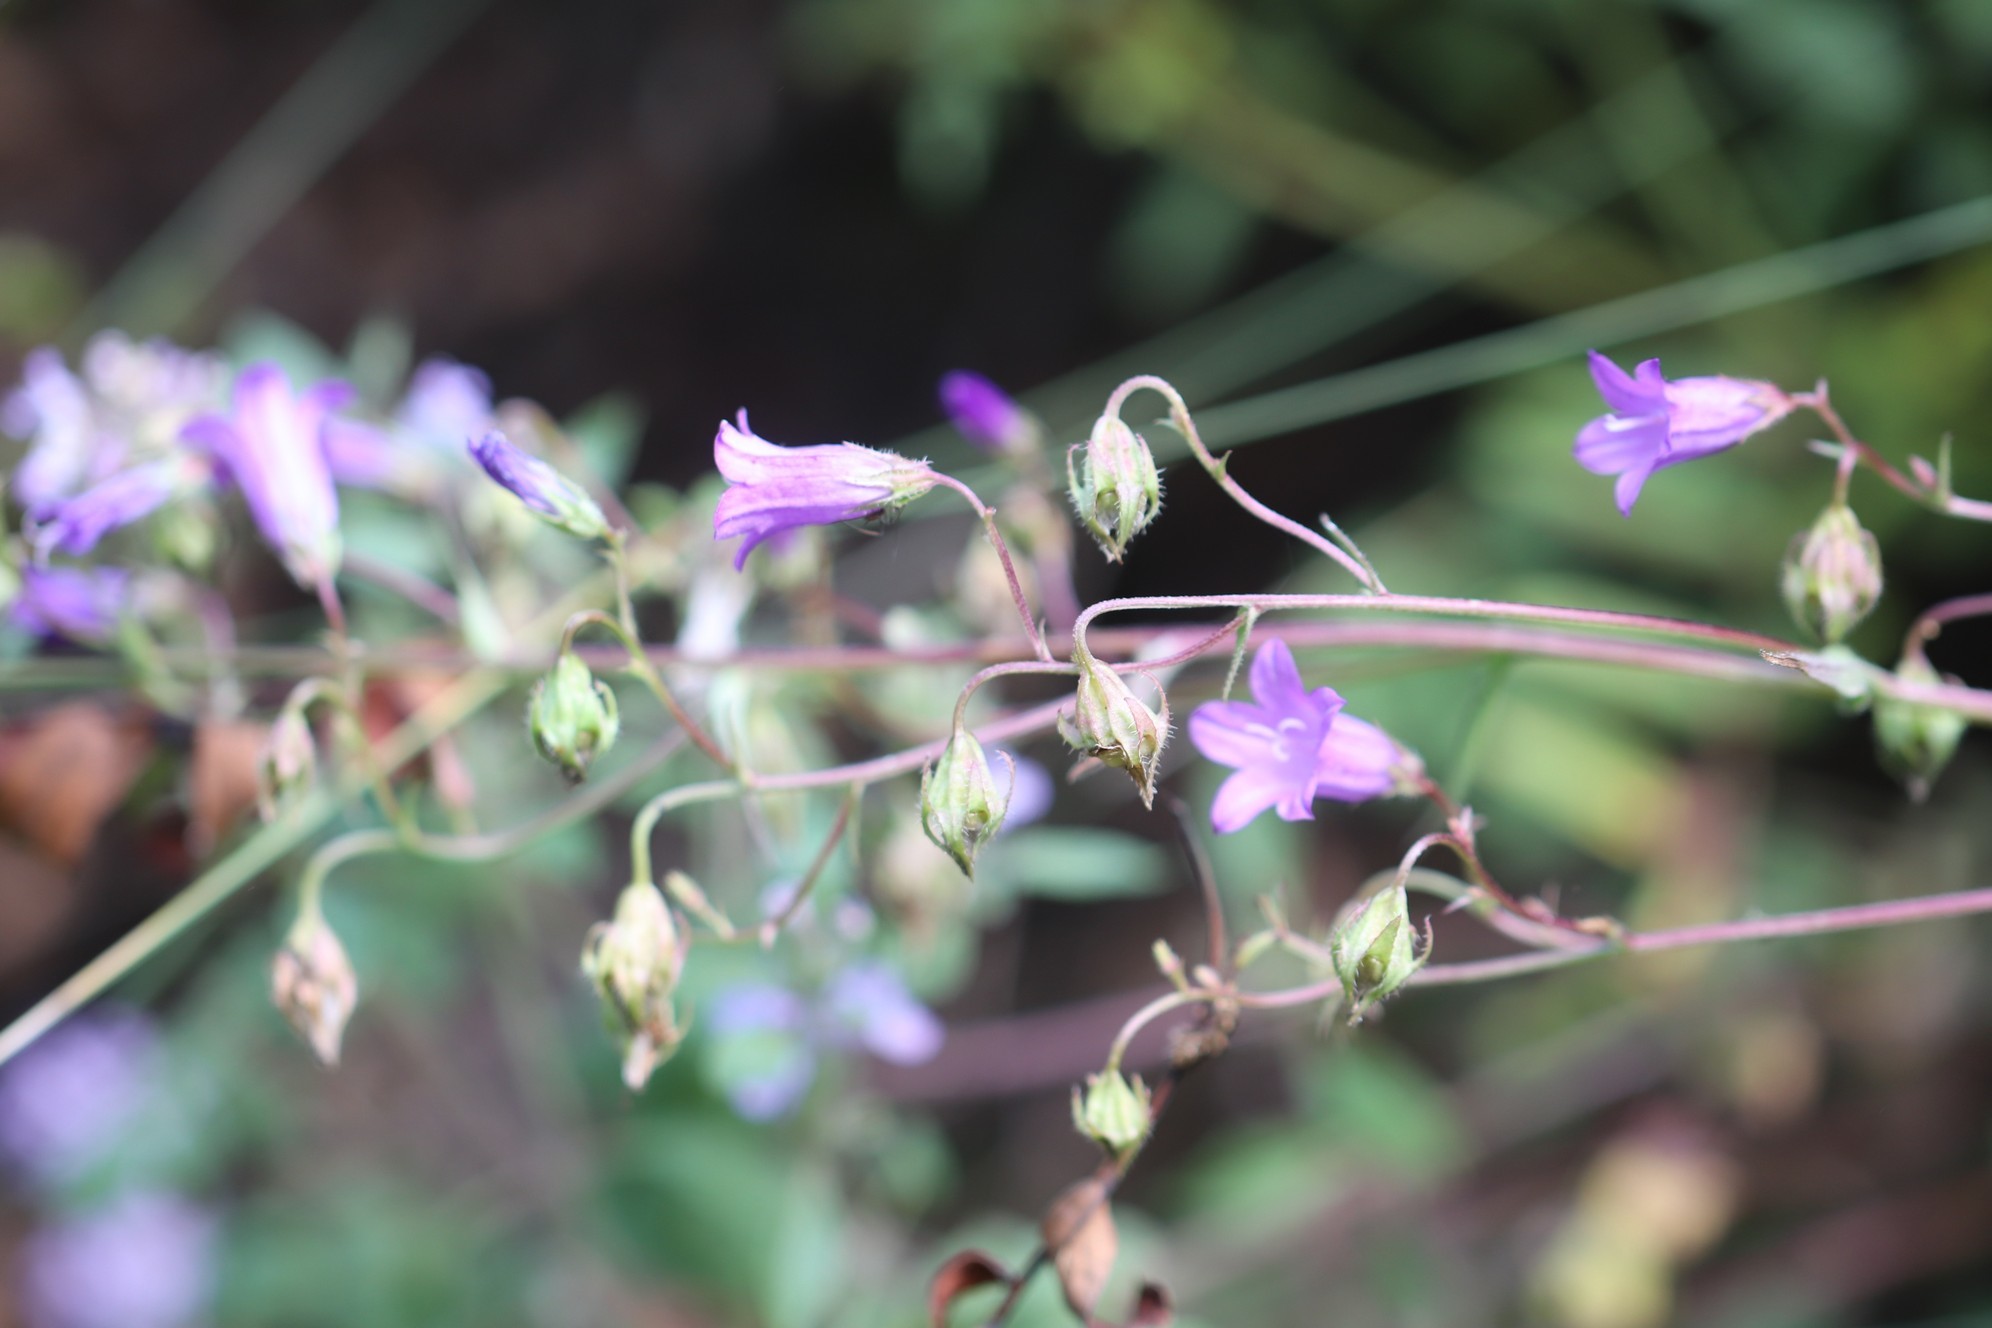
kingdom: Plantae
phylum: Tracheophyta
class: Magnoliopsida
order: Asterales
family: Campanulaceae
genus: Campanula
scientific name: Campanula sibirica
